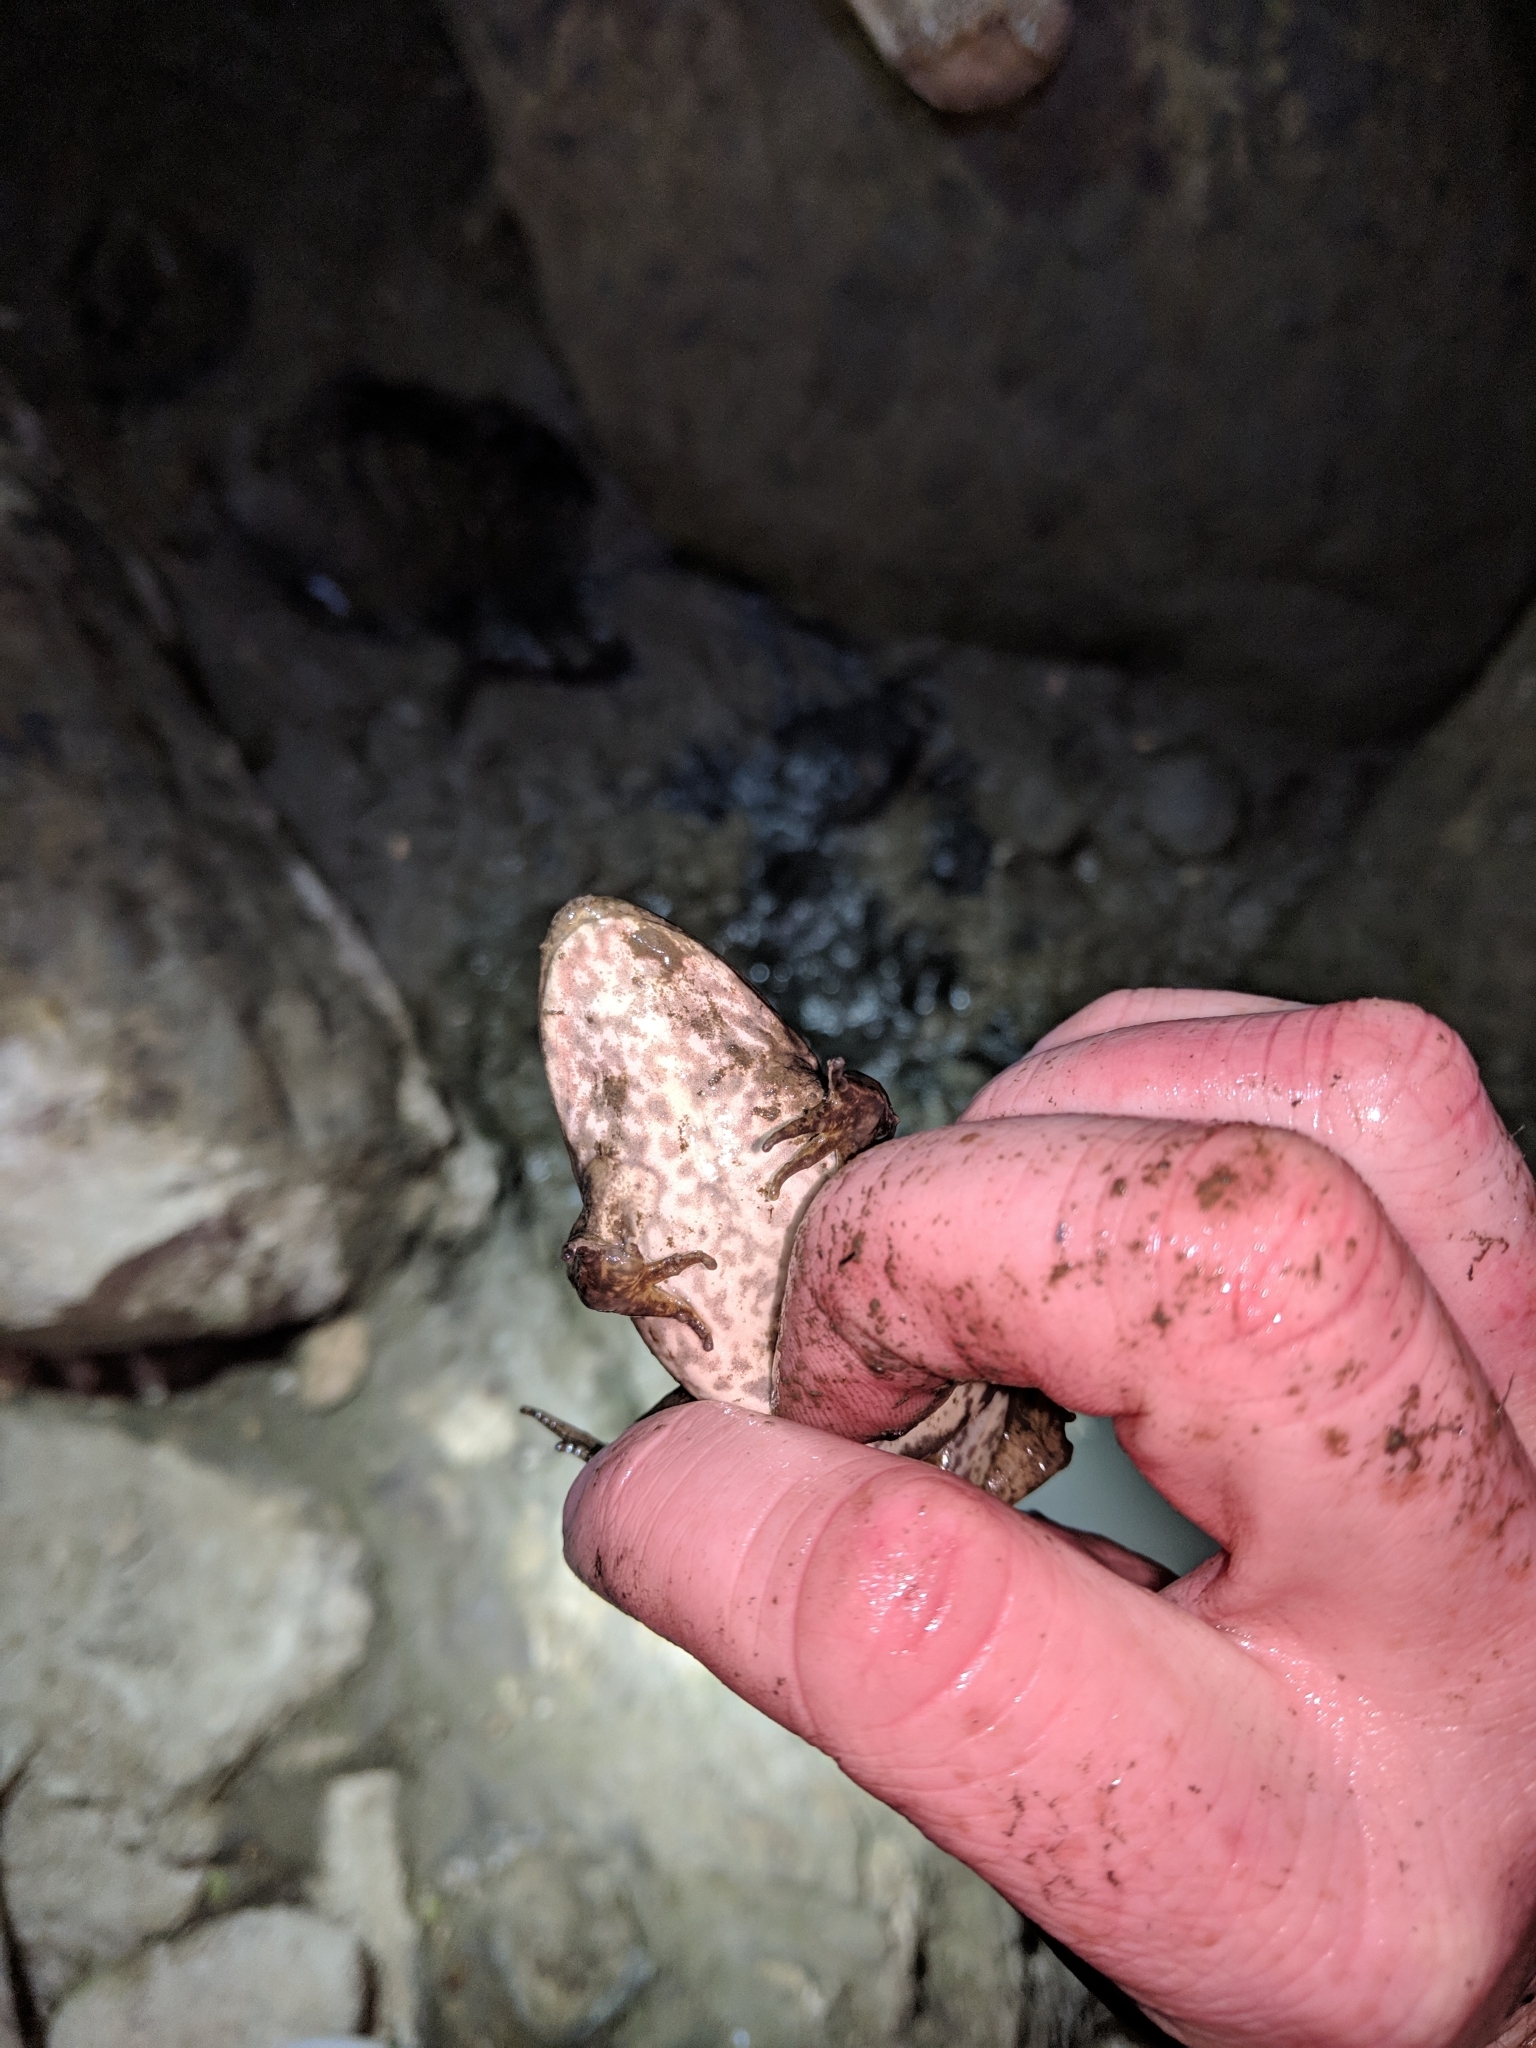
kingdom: Animalia
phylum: Chordata
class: Amphibia
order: Anura
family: Ranidae
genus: Lithobates
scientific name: Lithobates catesbeianus
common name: American bullfrog
